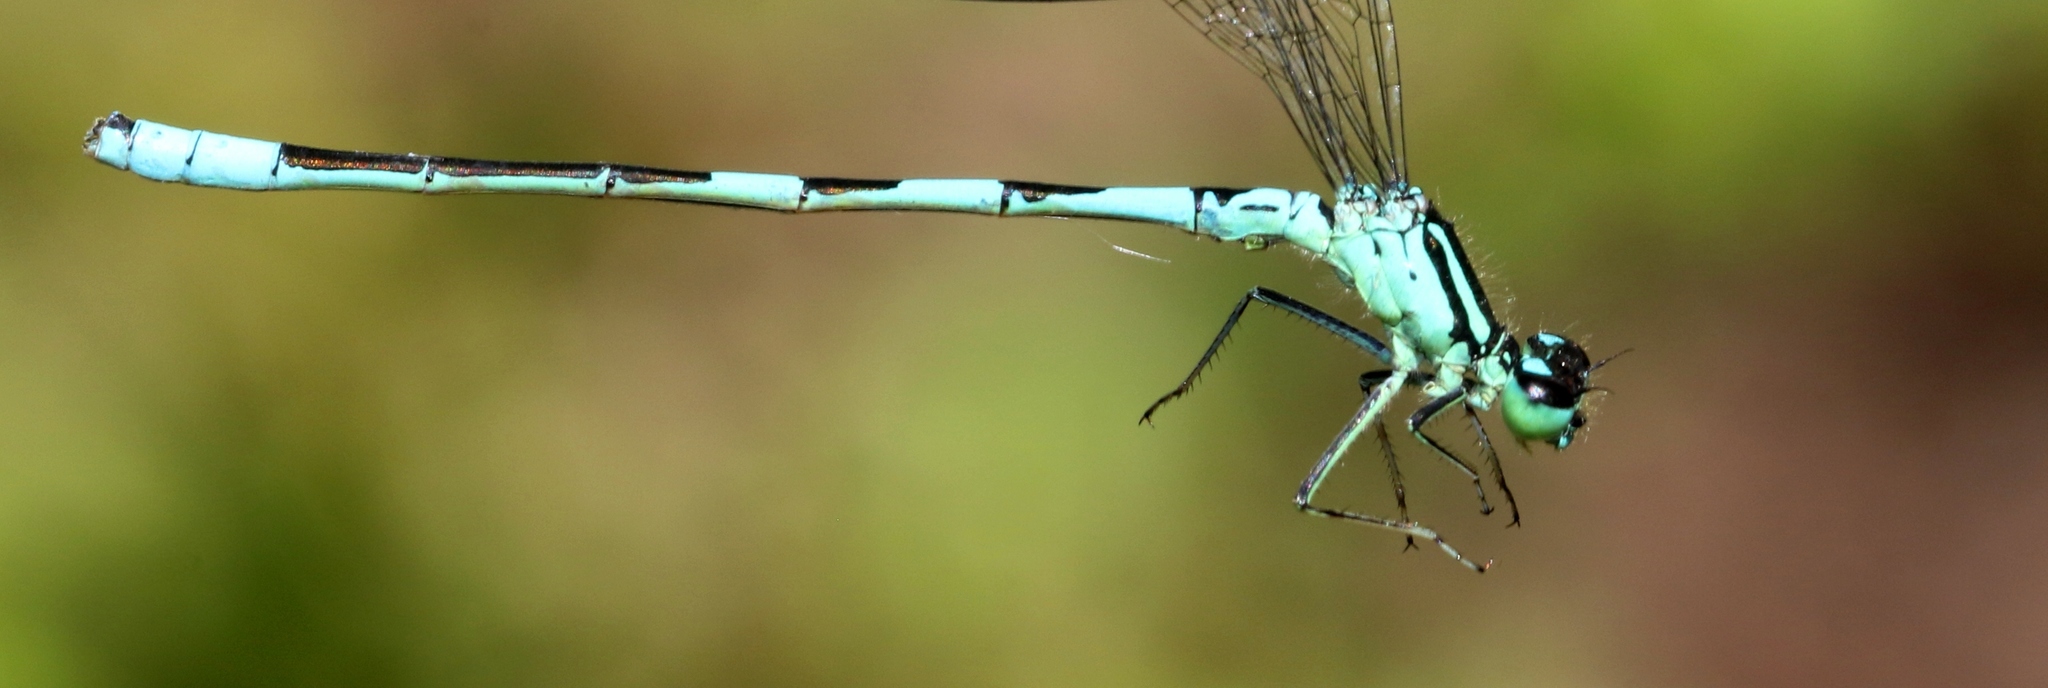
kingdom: Animalia
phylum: Arthropoda
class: Insecta
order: Odonata
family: Coenagrionidae
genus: Coenagrion
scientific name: Coenagrion resolutum
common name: Taiga bluet
